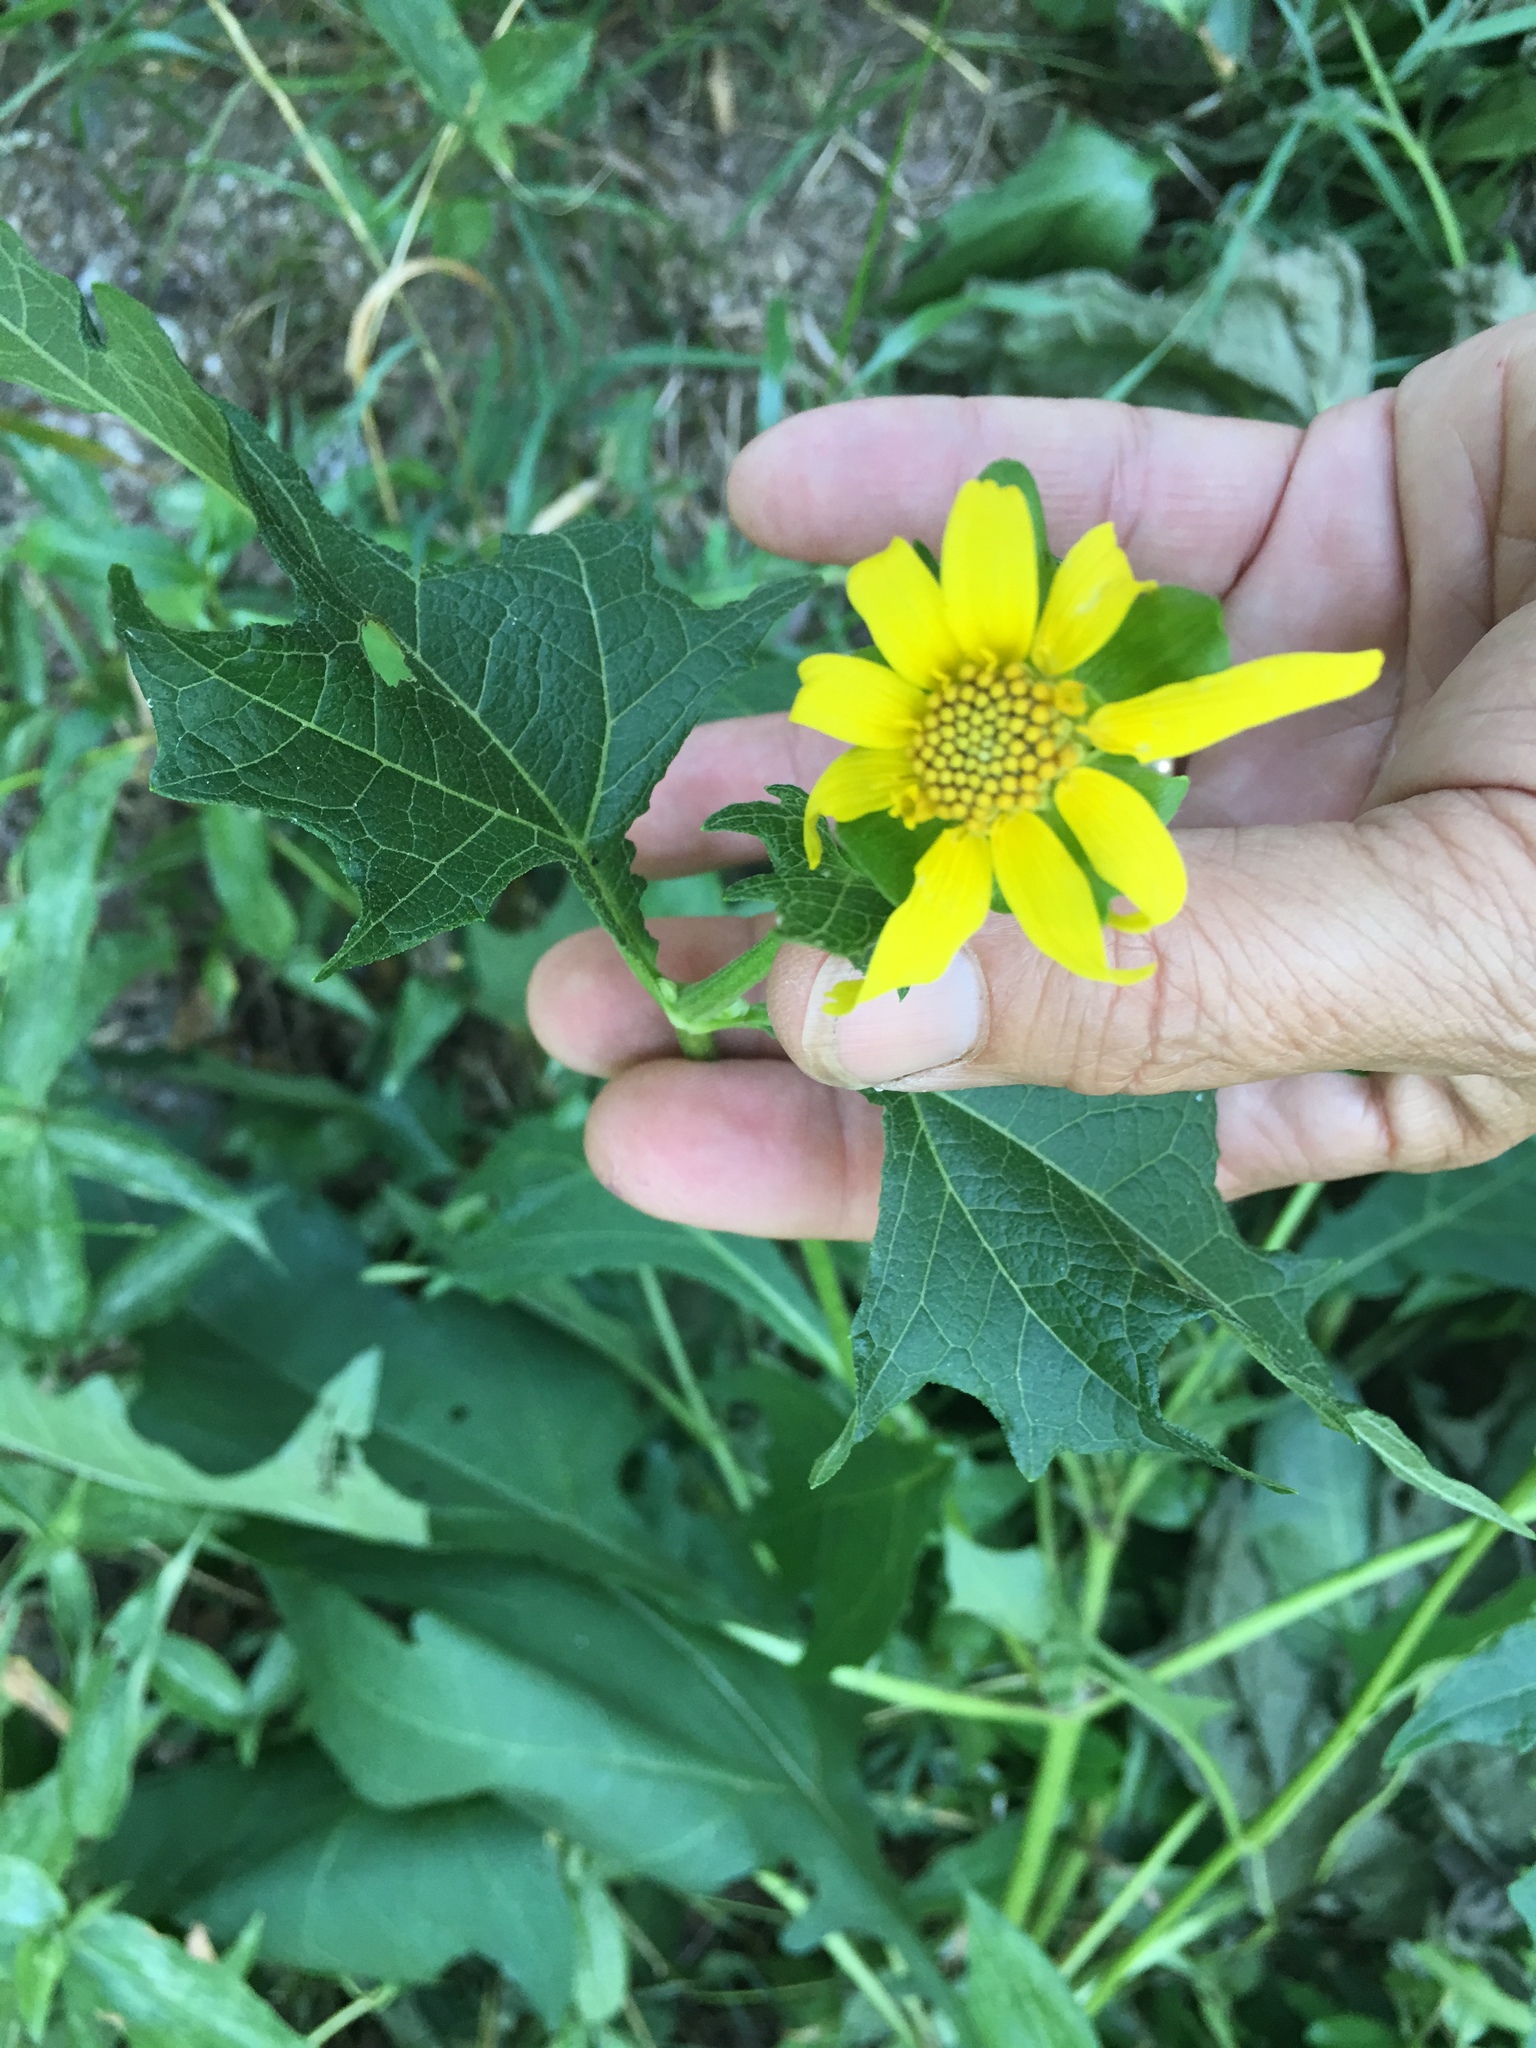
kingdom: Plantae
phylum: Tracheophyta
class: Magnoliopsida
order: Asterales
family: Asteraceae
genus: Smallanthus
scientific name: Smallanthus uvedalia
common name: Bear's-foot
